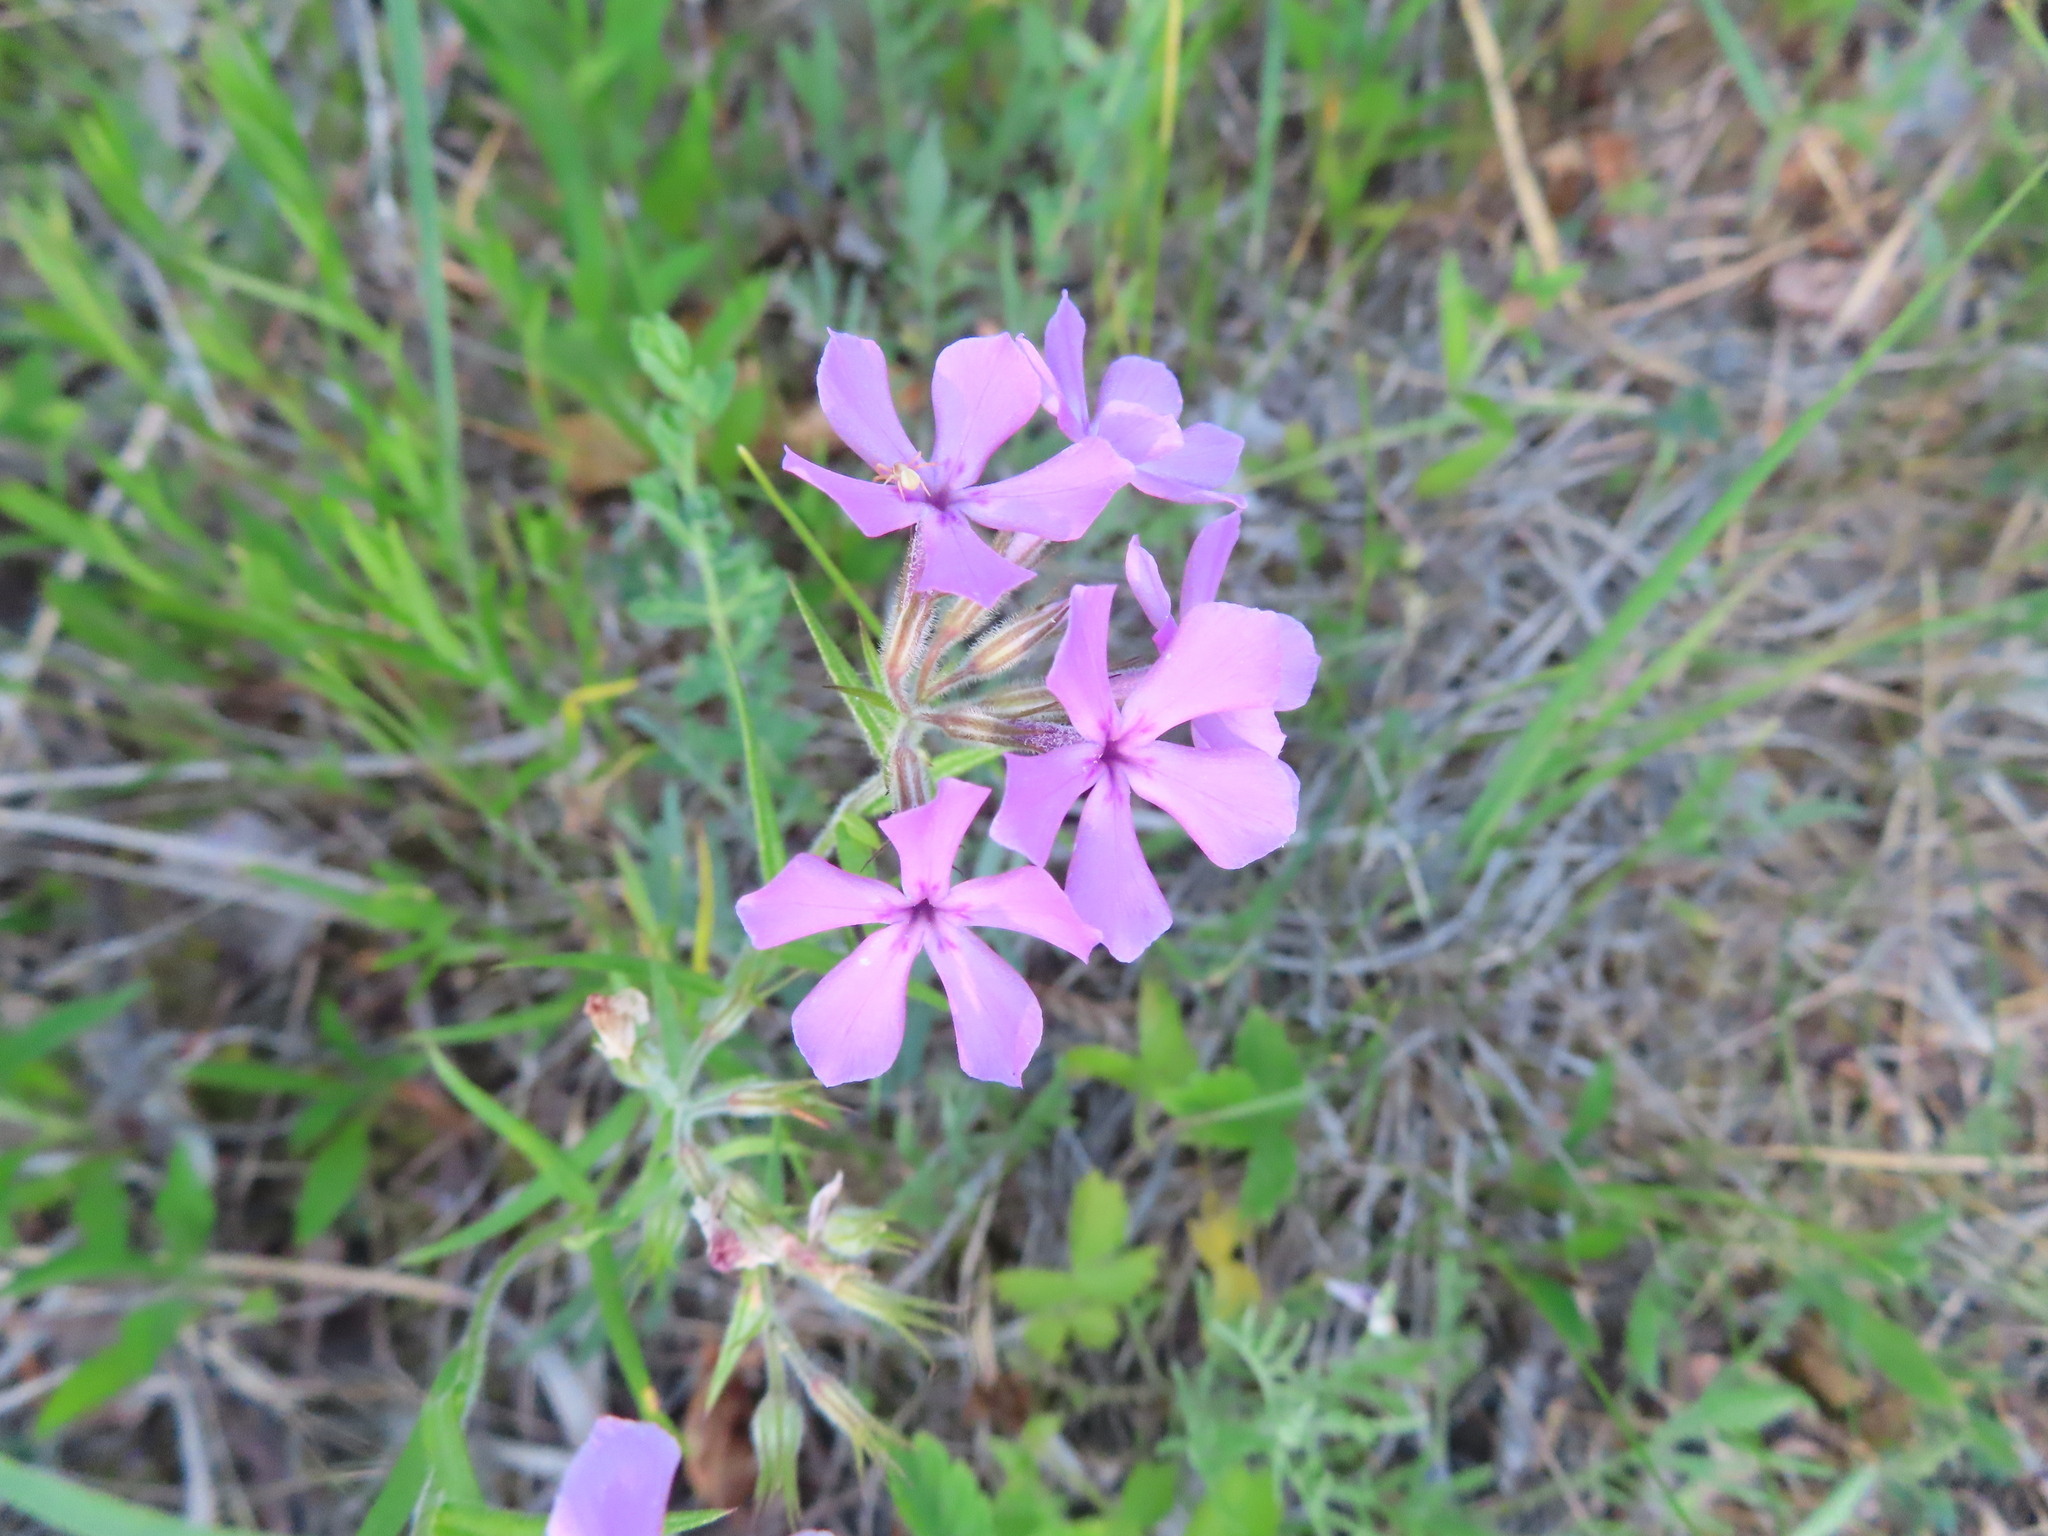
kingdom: Plantae
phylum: Tracheophyta
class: Magnoliopsida
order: Ericales
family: Polemoniaceae
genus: Phlox
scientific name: Phlox pilosa
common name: Prairie phlox
